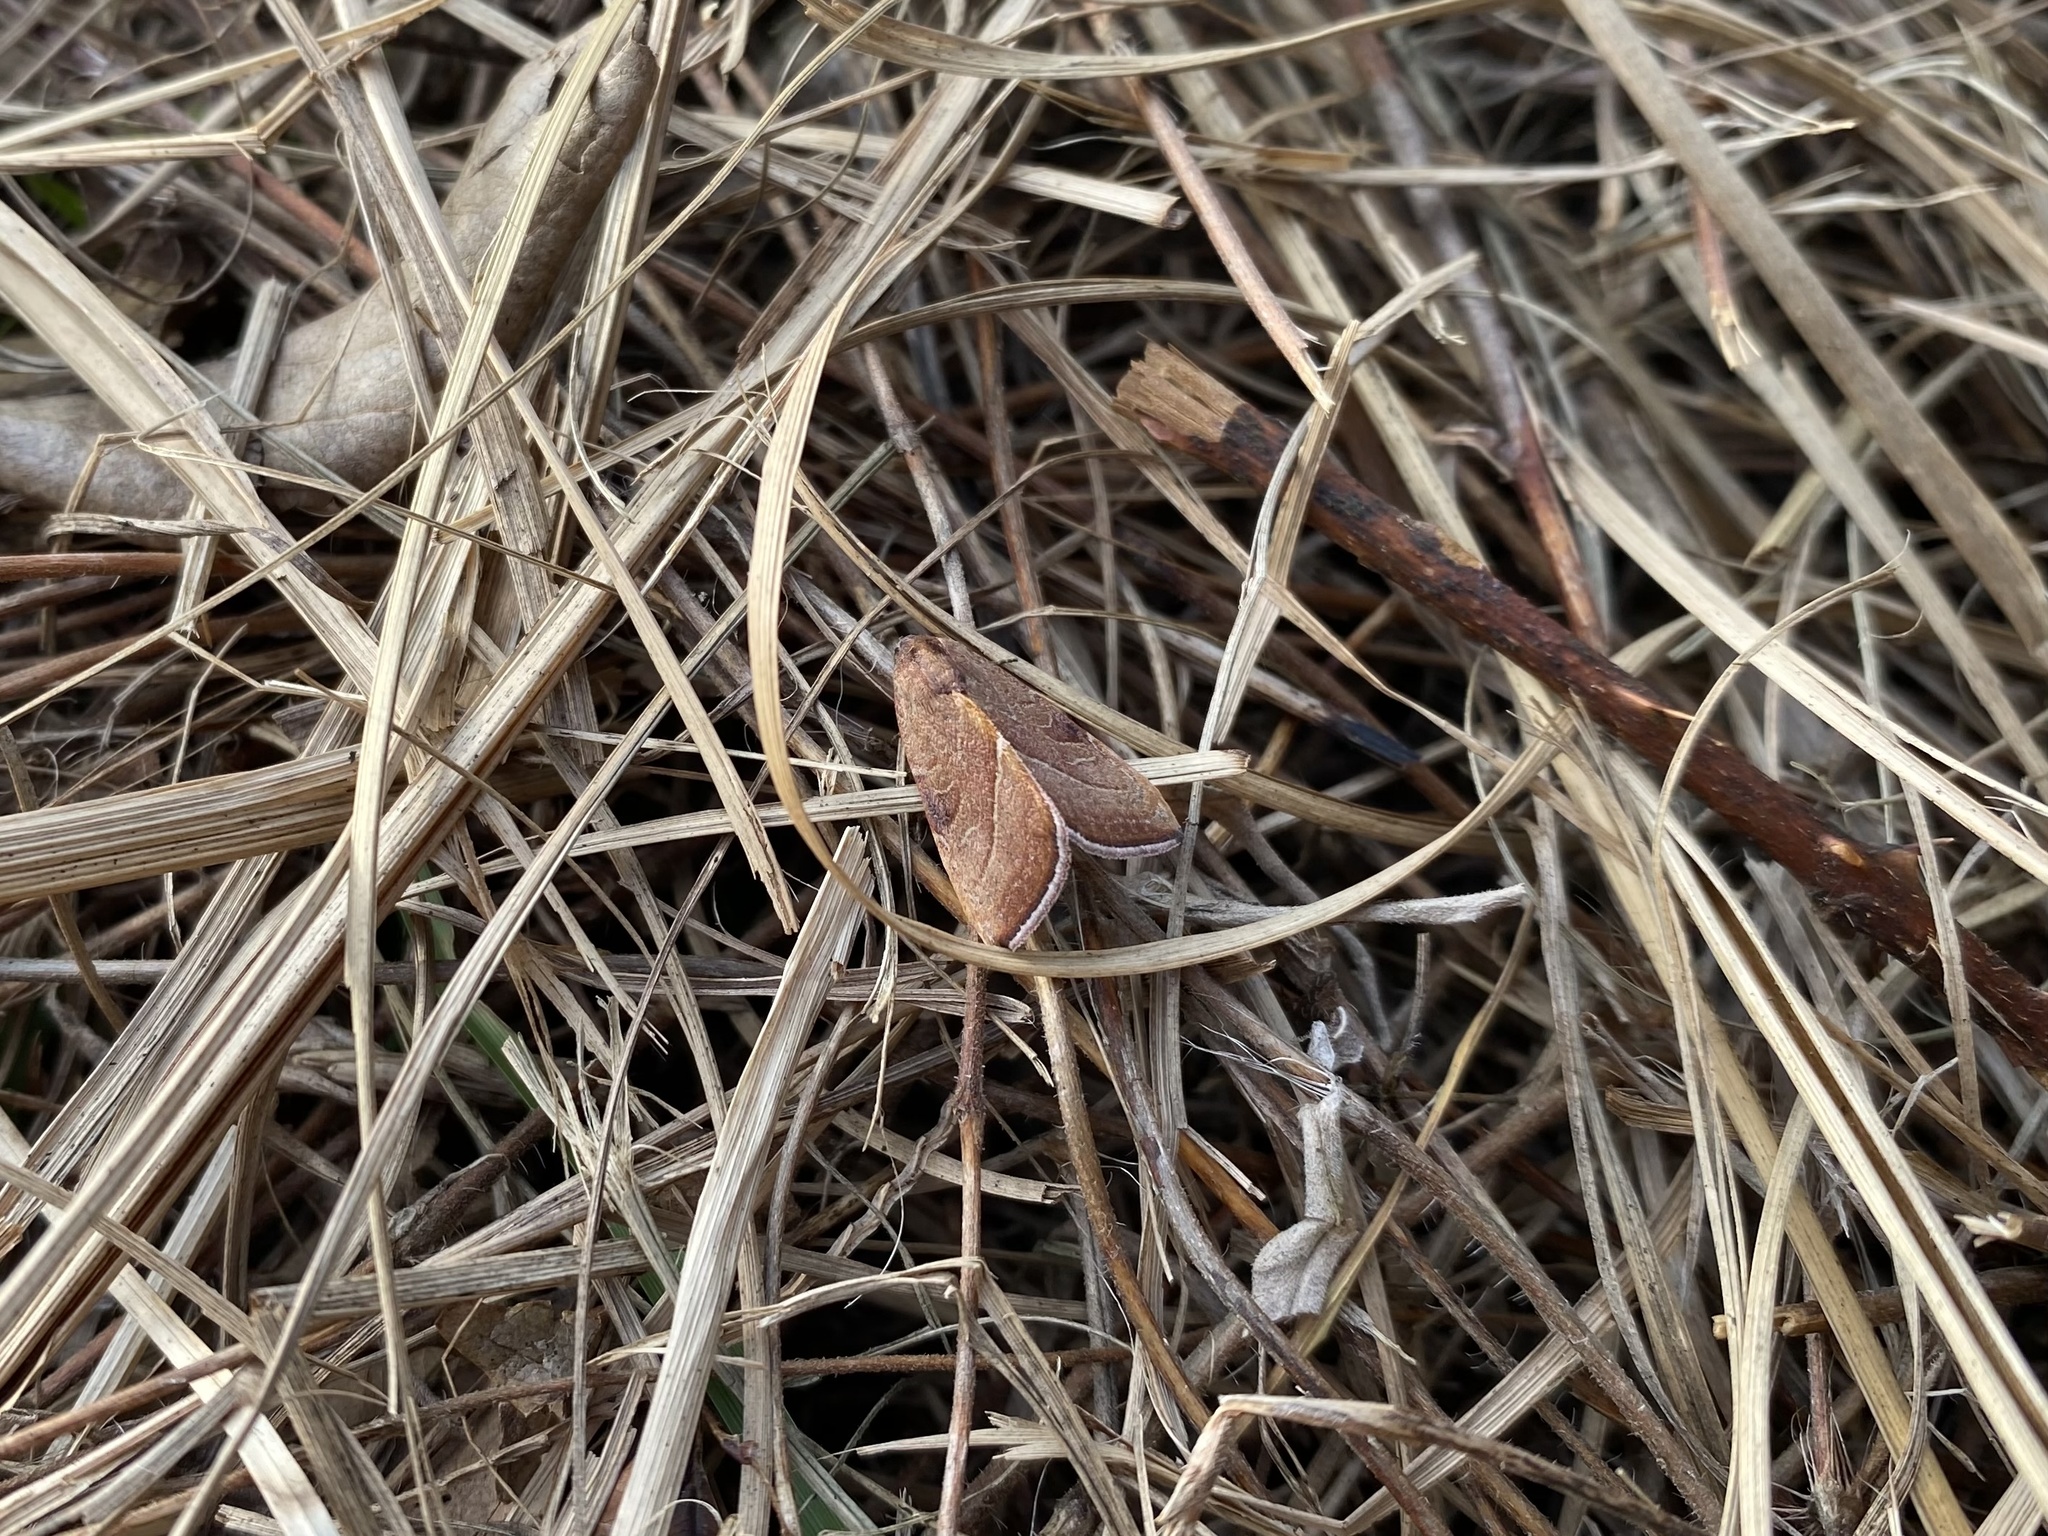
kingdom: Animalia
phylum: Arthropoda
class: Insecta
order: Lepidoptera
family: Noctuidae
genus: Galgula
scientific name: Galgula partita
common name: Wedgeling
